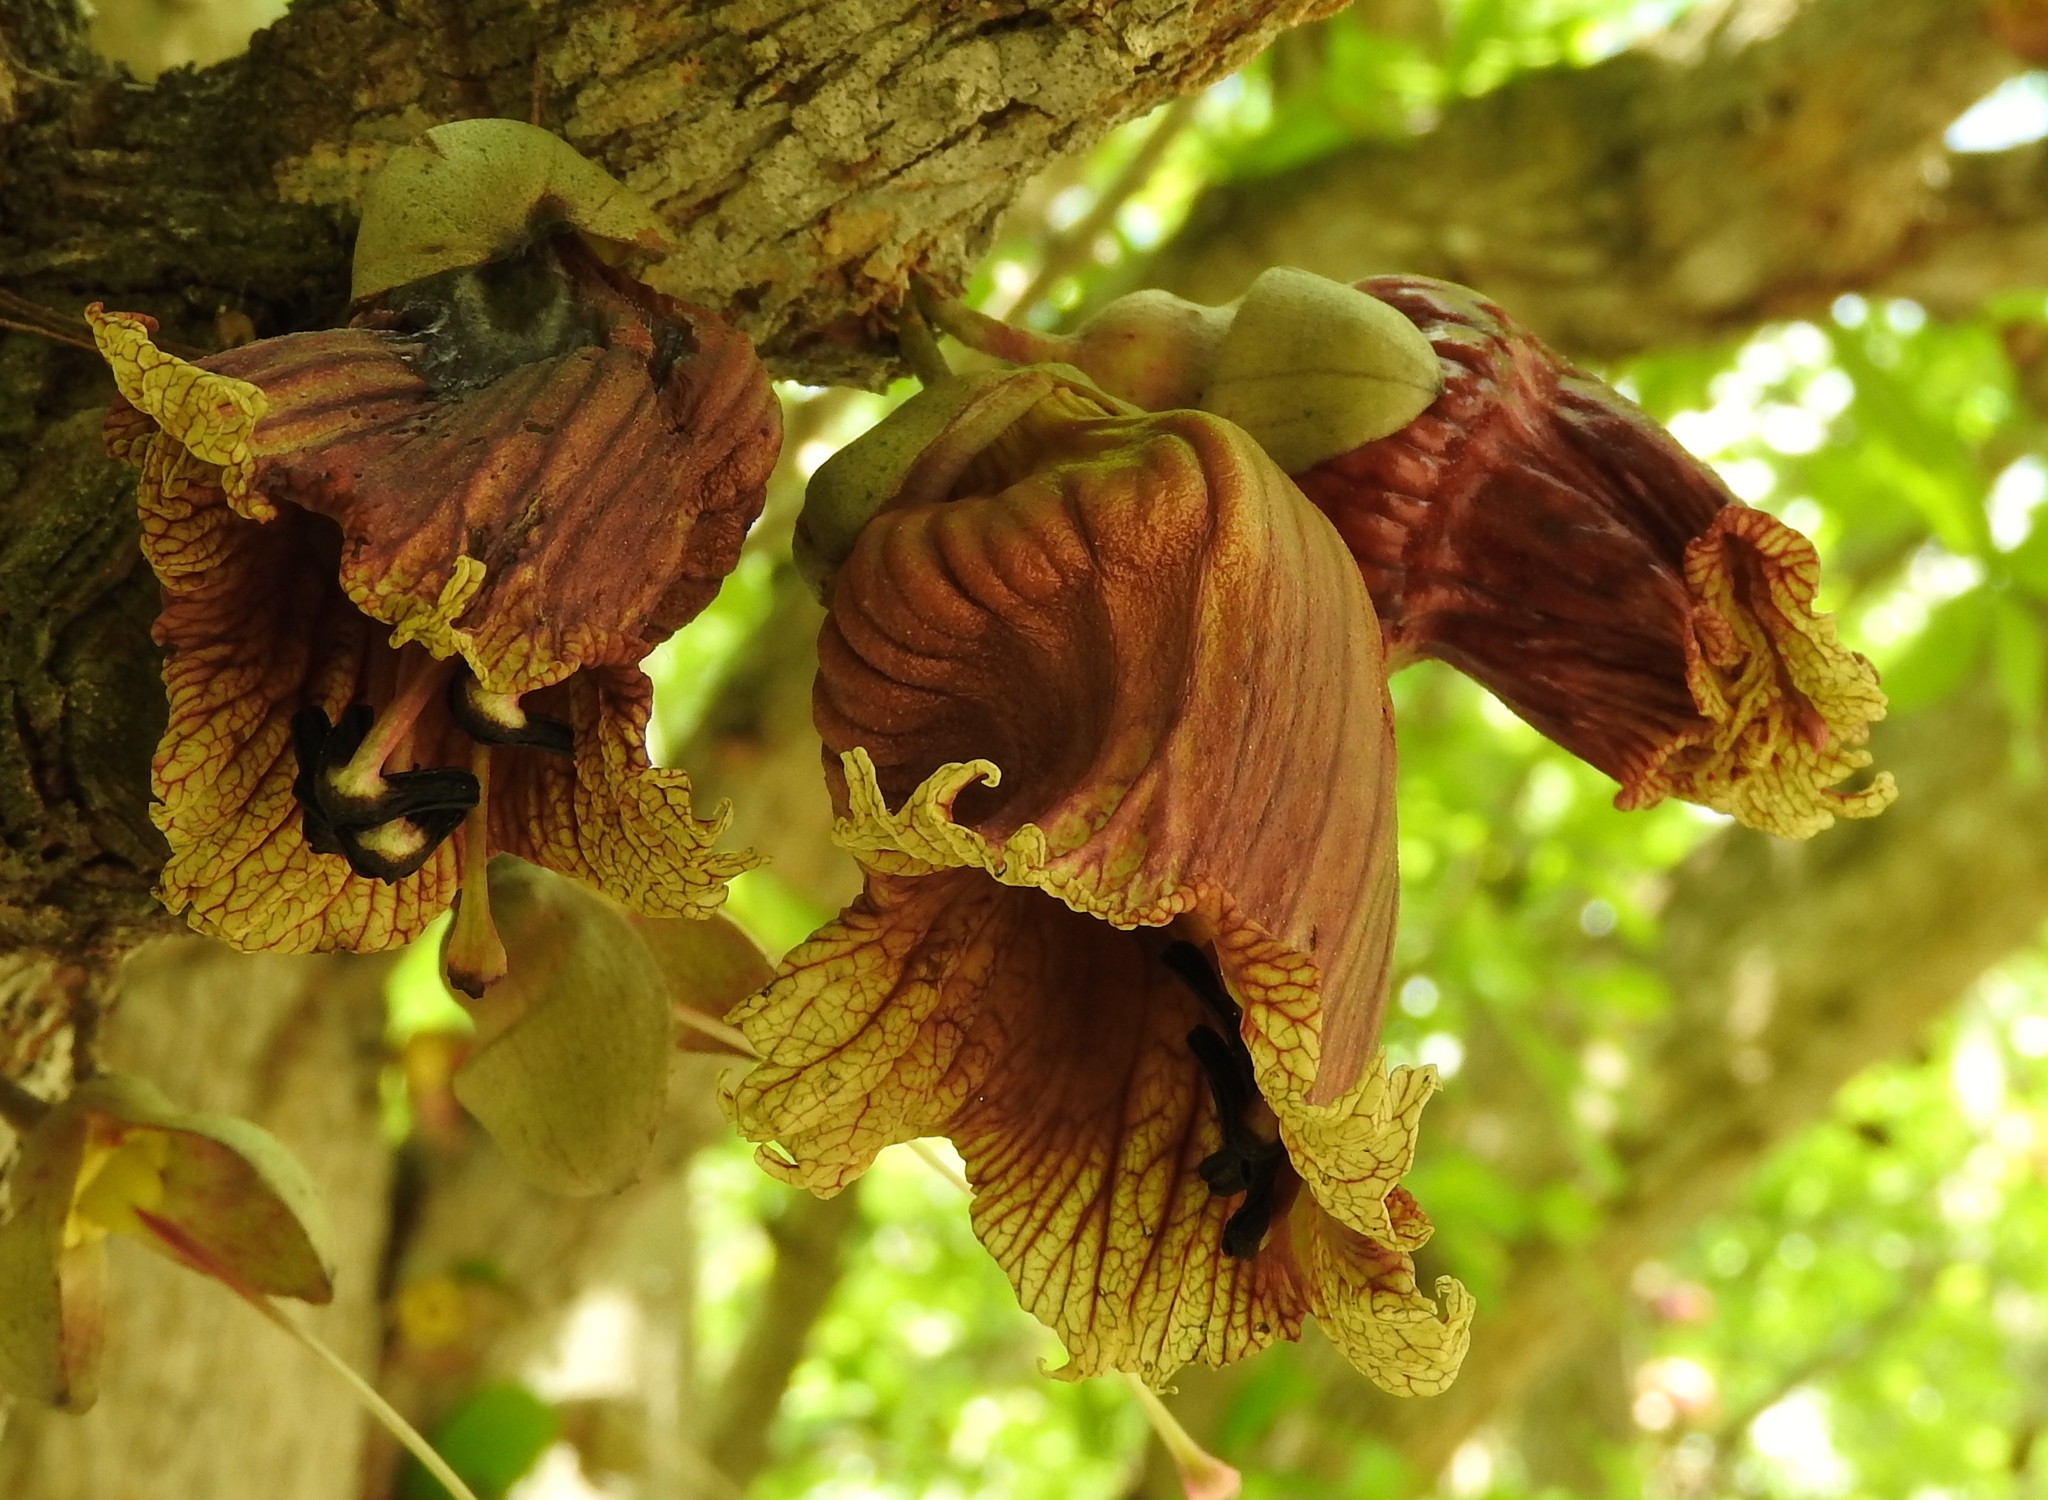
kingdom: Plantae
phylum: Tracheophyta
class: Magnoliopsida
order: Lamiales
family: Bignoniaceae
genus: Crescentia
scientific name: Crescentia alata
